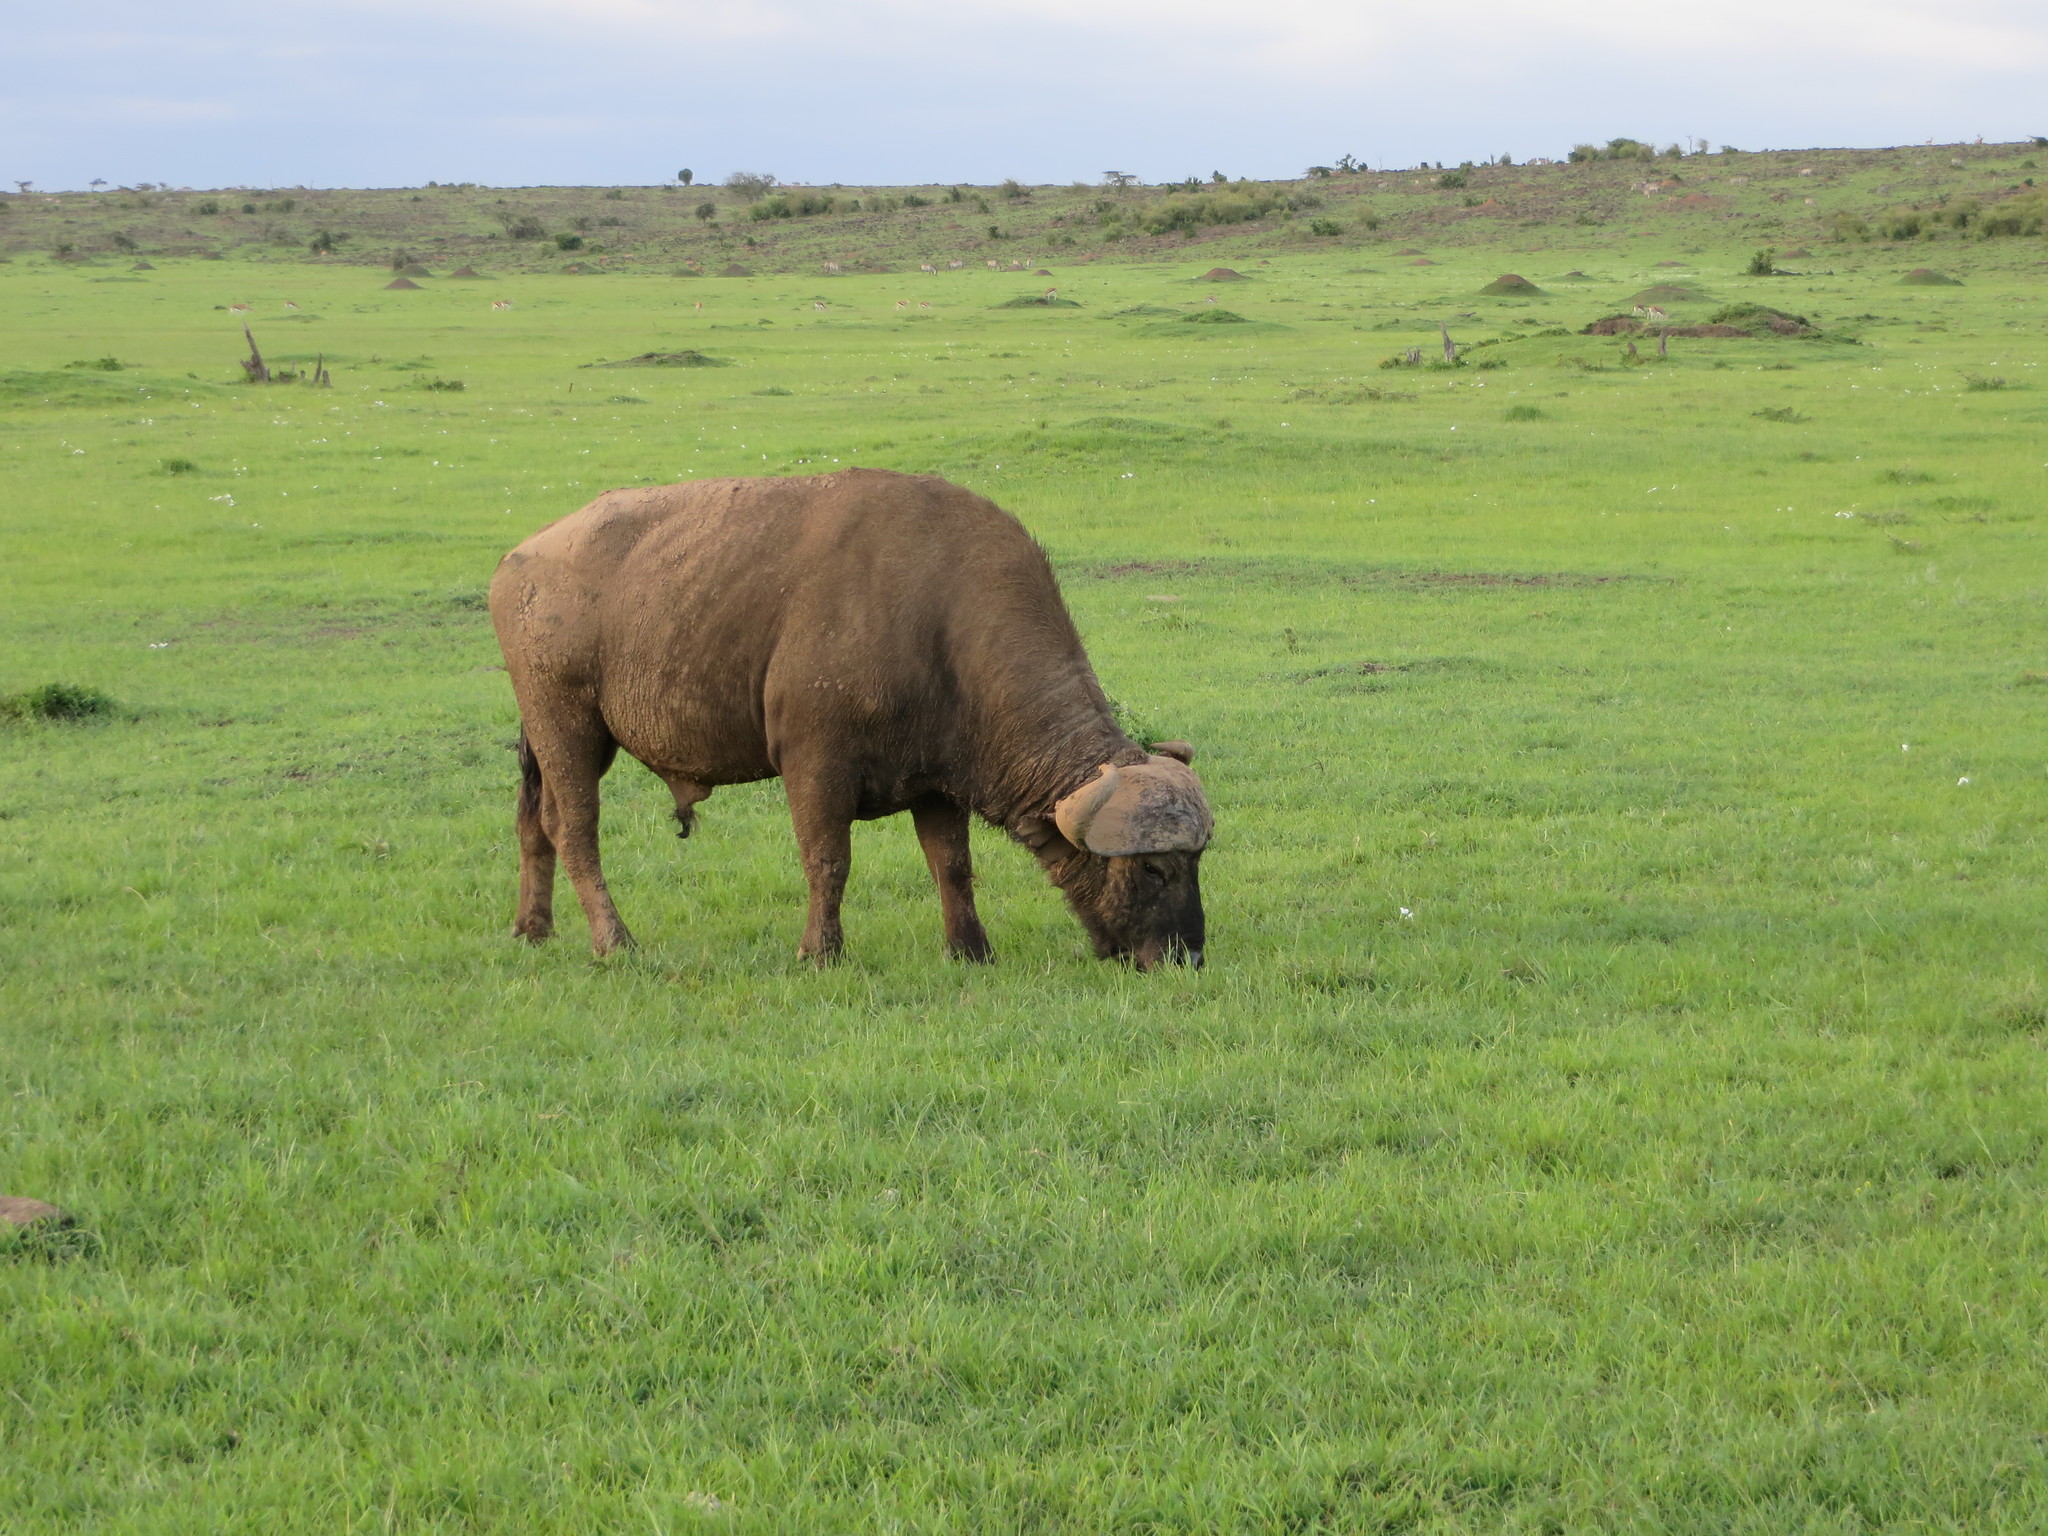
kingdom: Animalia
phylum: Chordata
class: Mammalia
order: Artiodactyla
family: Bovidae
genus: Syncerus
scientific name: Syncerus caffer
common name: African buffalo
